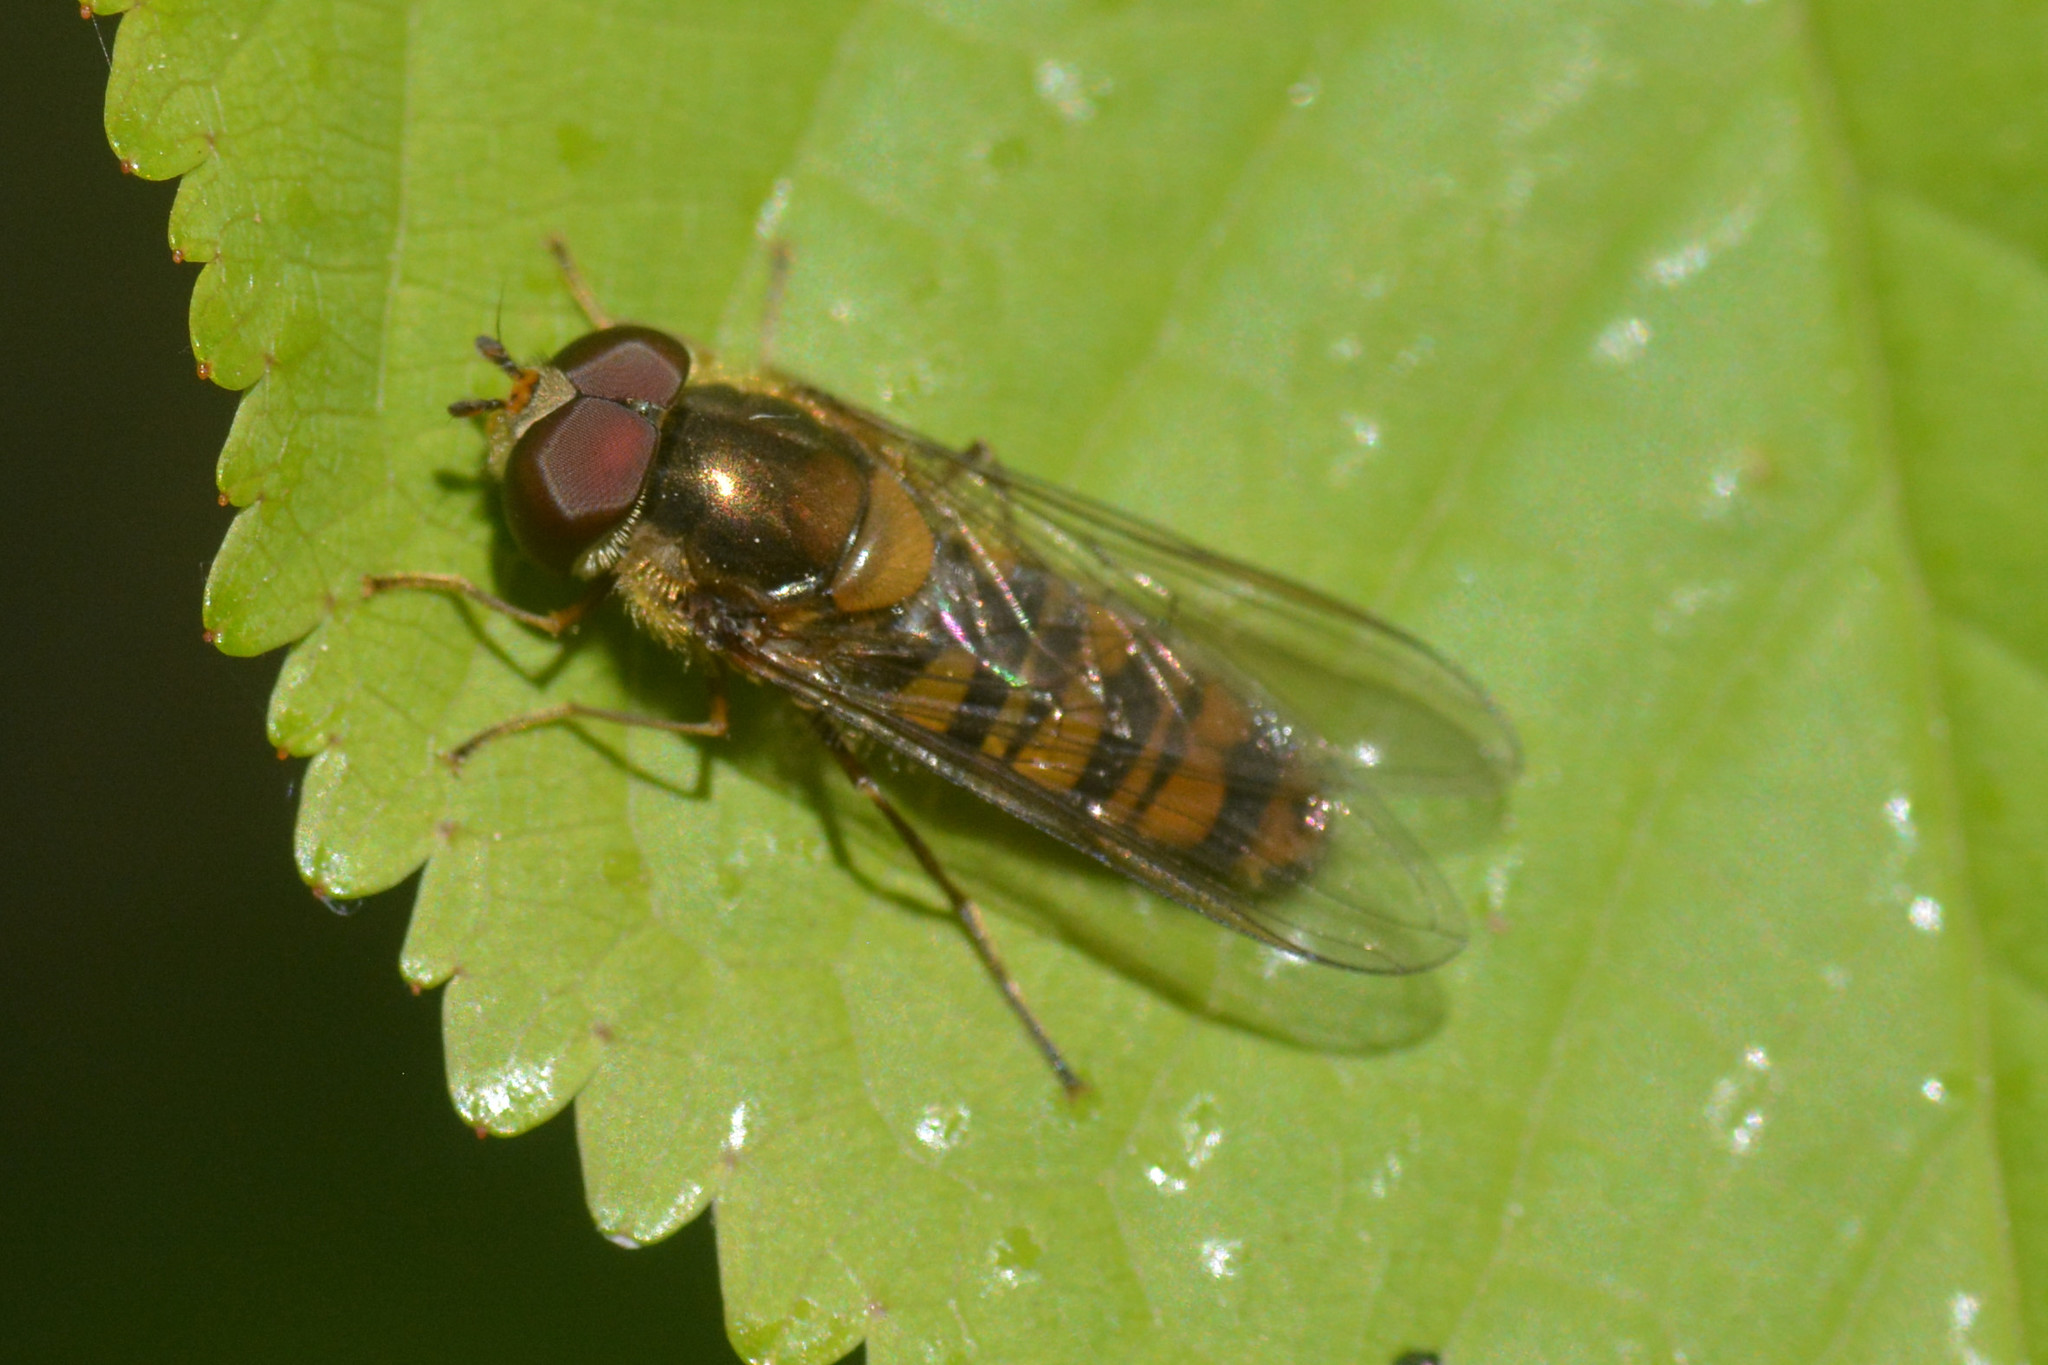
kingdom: Animalia
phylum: Arthropoda
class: Insecta
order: Diptera
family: Syrphidae
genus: Episyrphus
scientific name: Episyrphus balteatus
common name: Marmalade hoverfly
